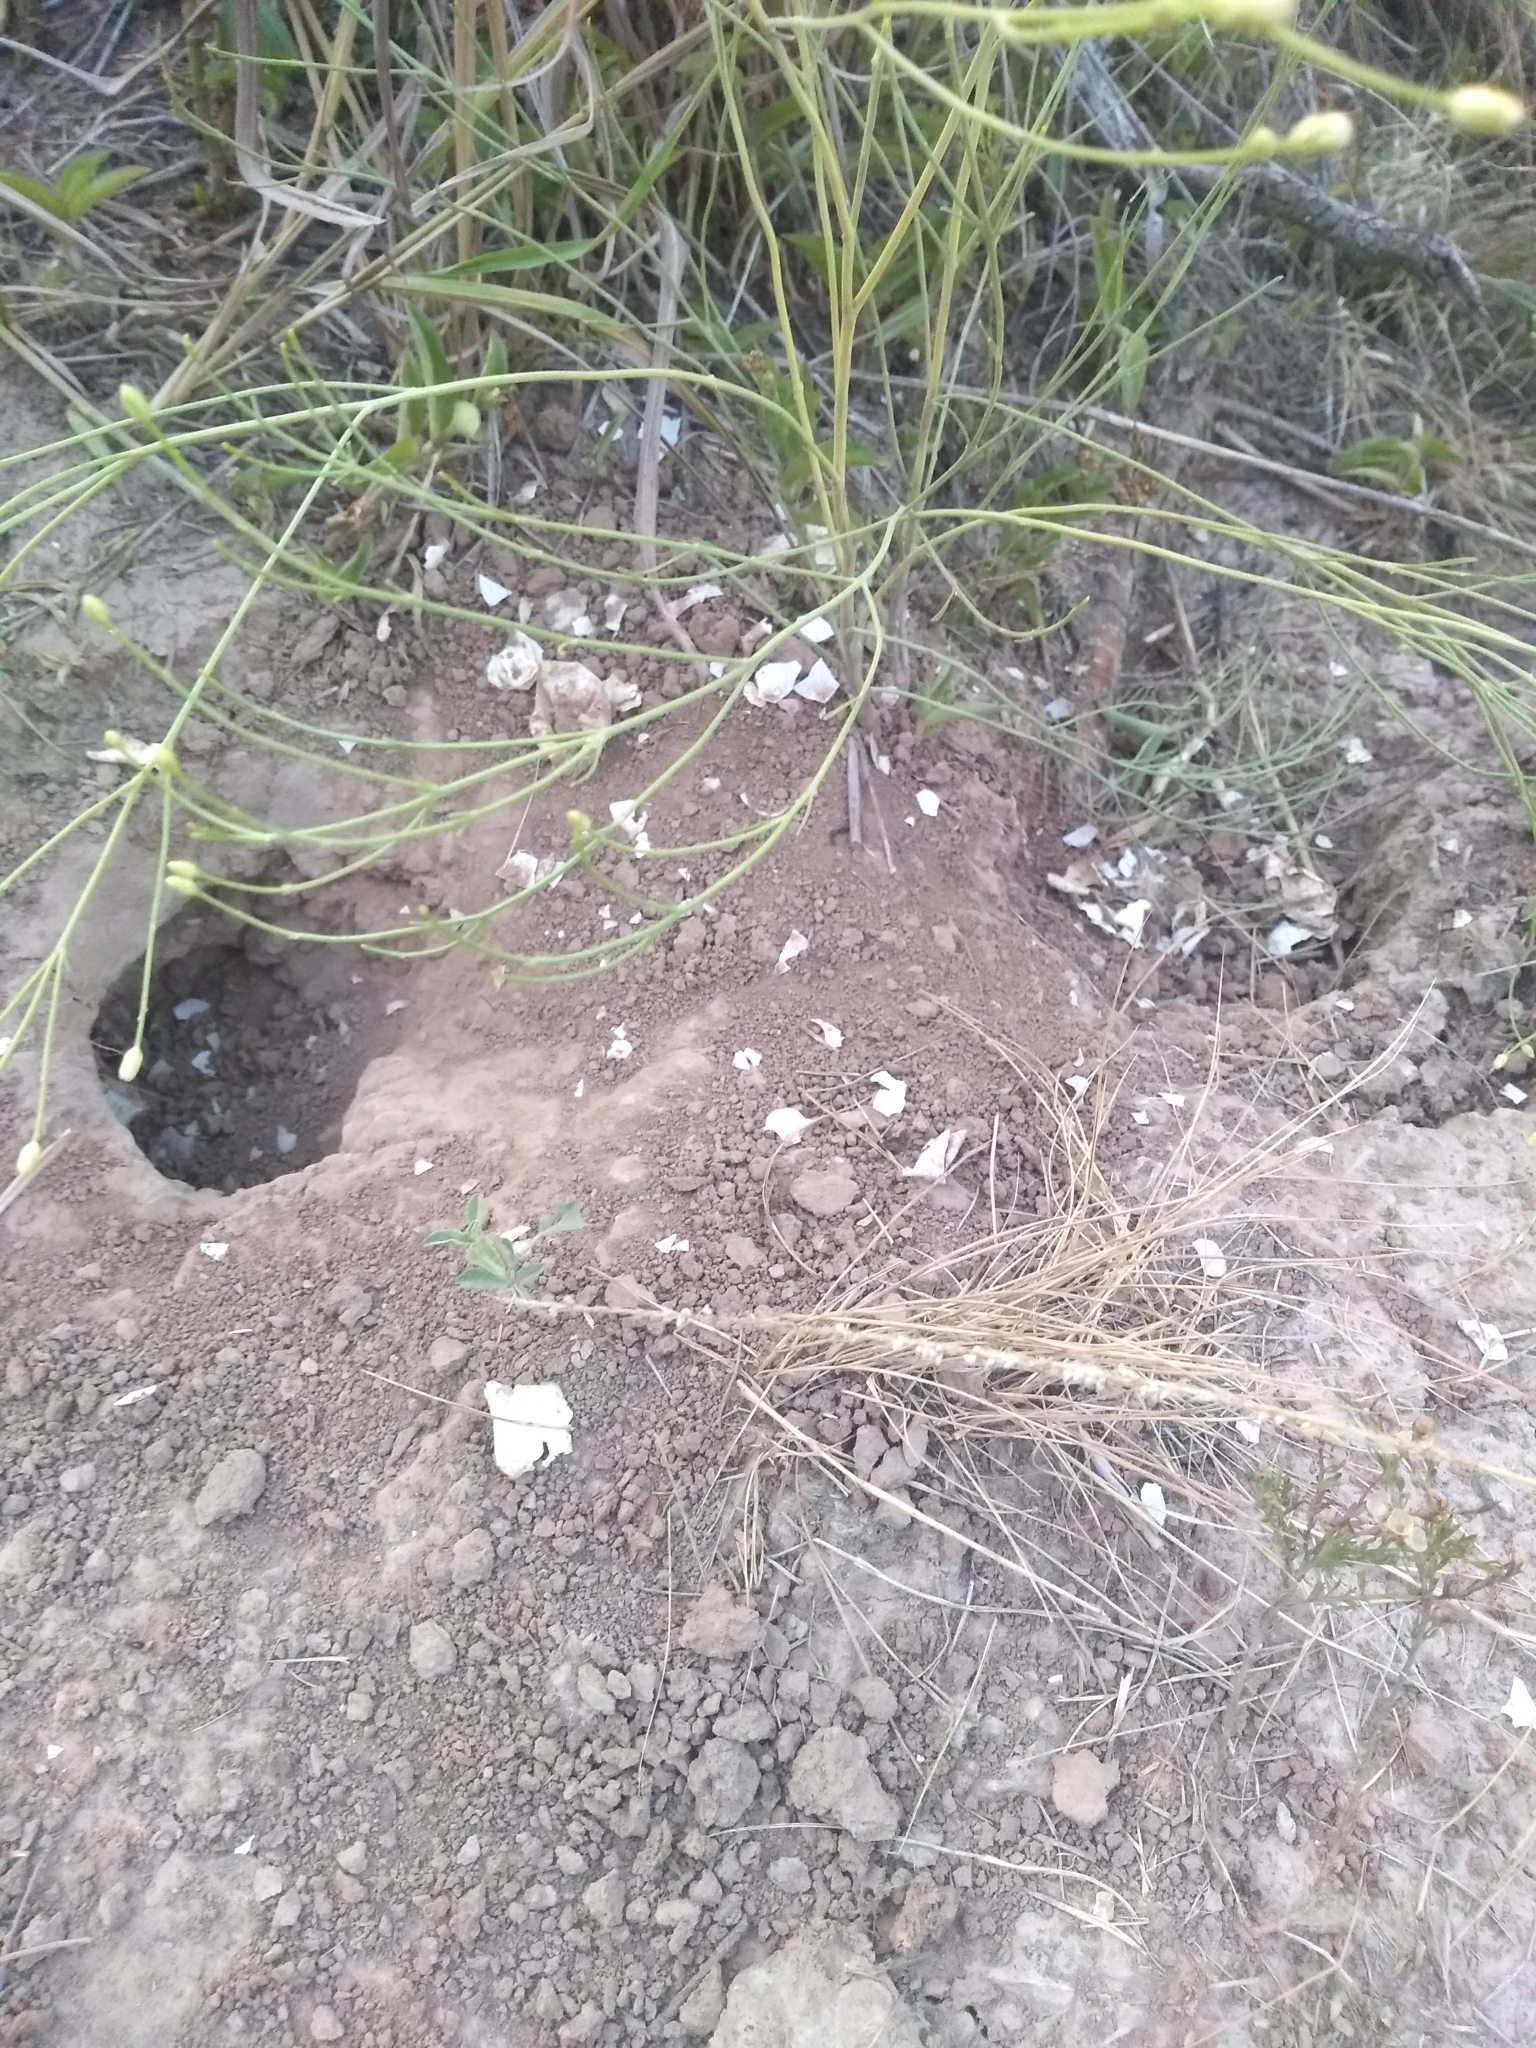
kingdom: Animalia
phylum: Chordata
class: Testudines
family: Chelidae
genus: Phrynops
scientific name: Phrynops hilarii
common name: Side-necked turtle of saint hillaire
